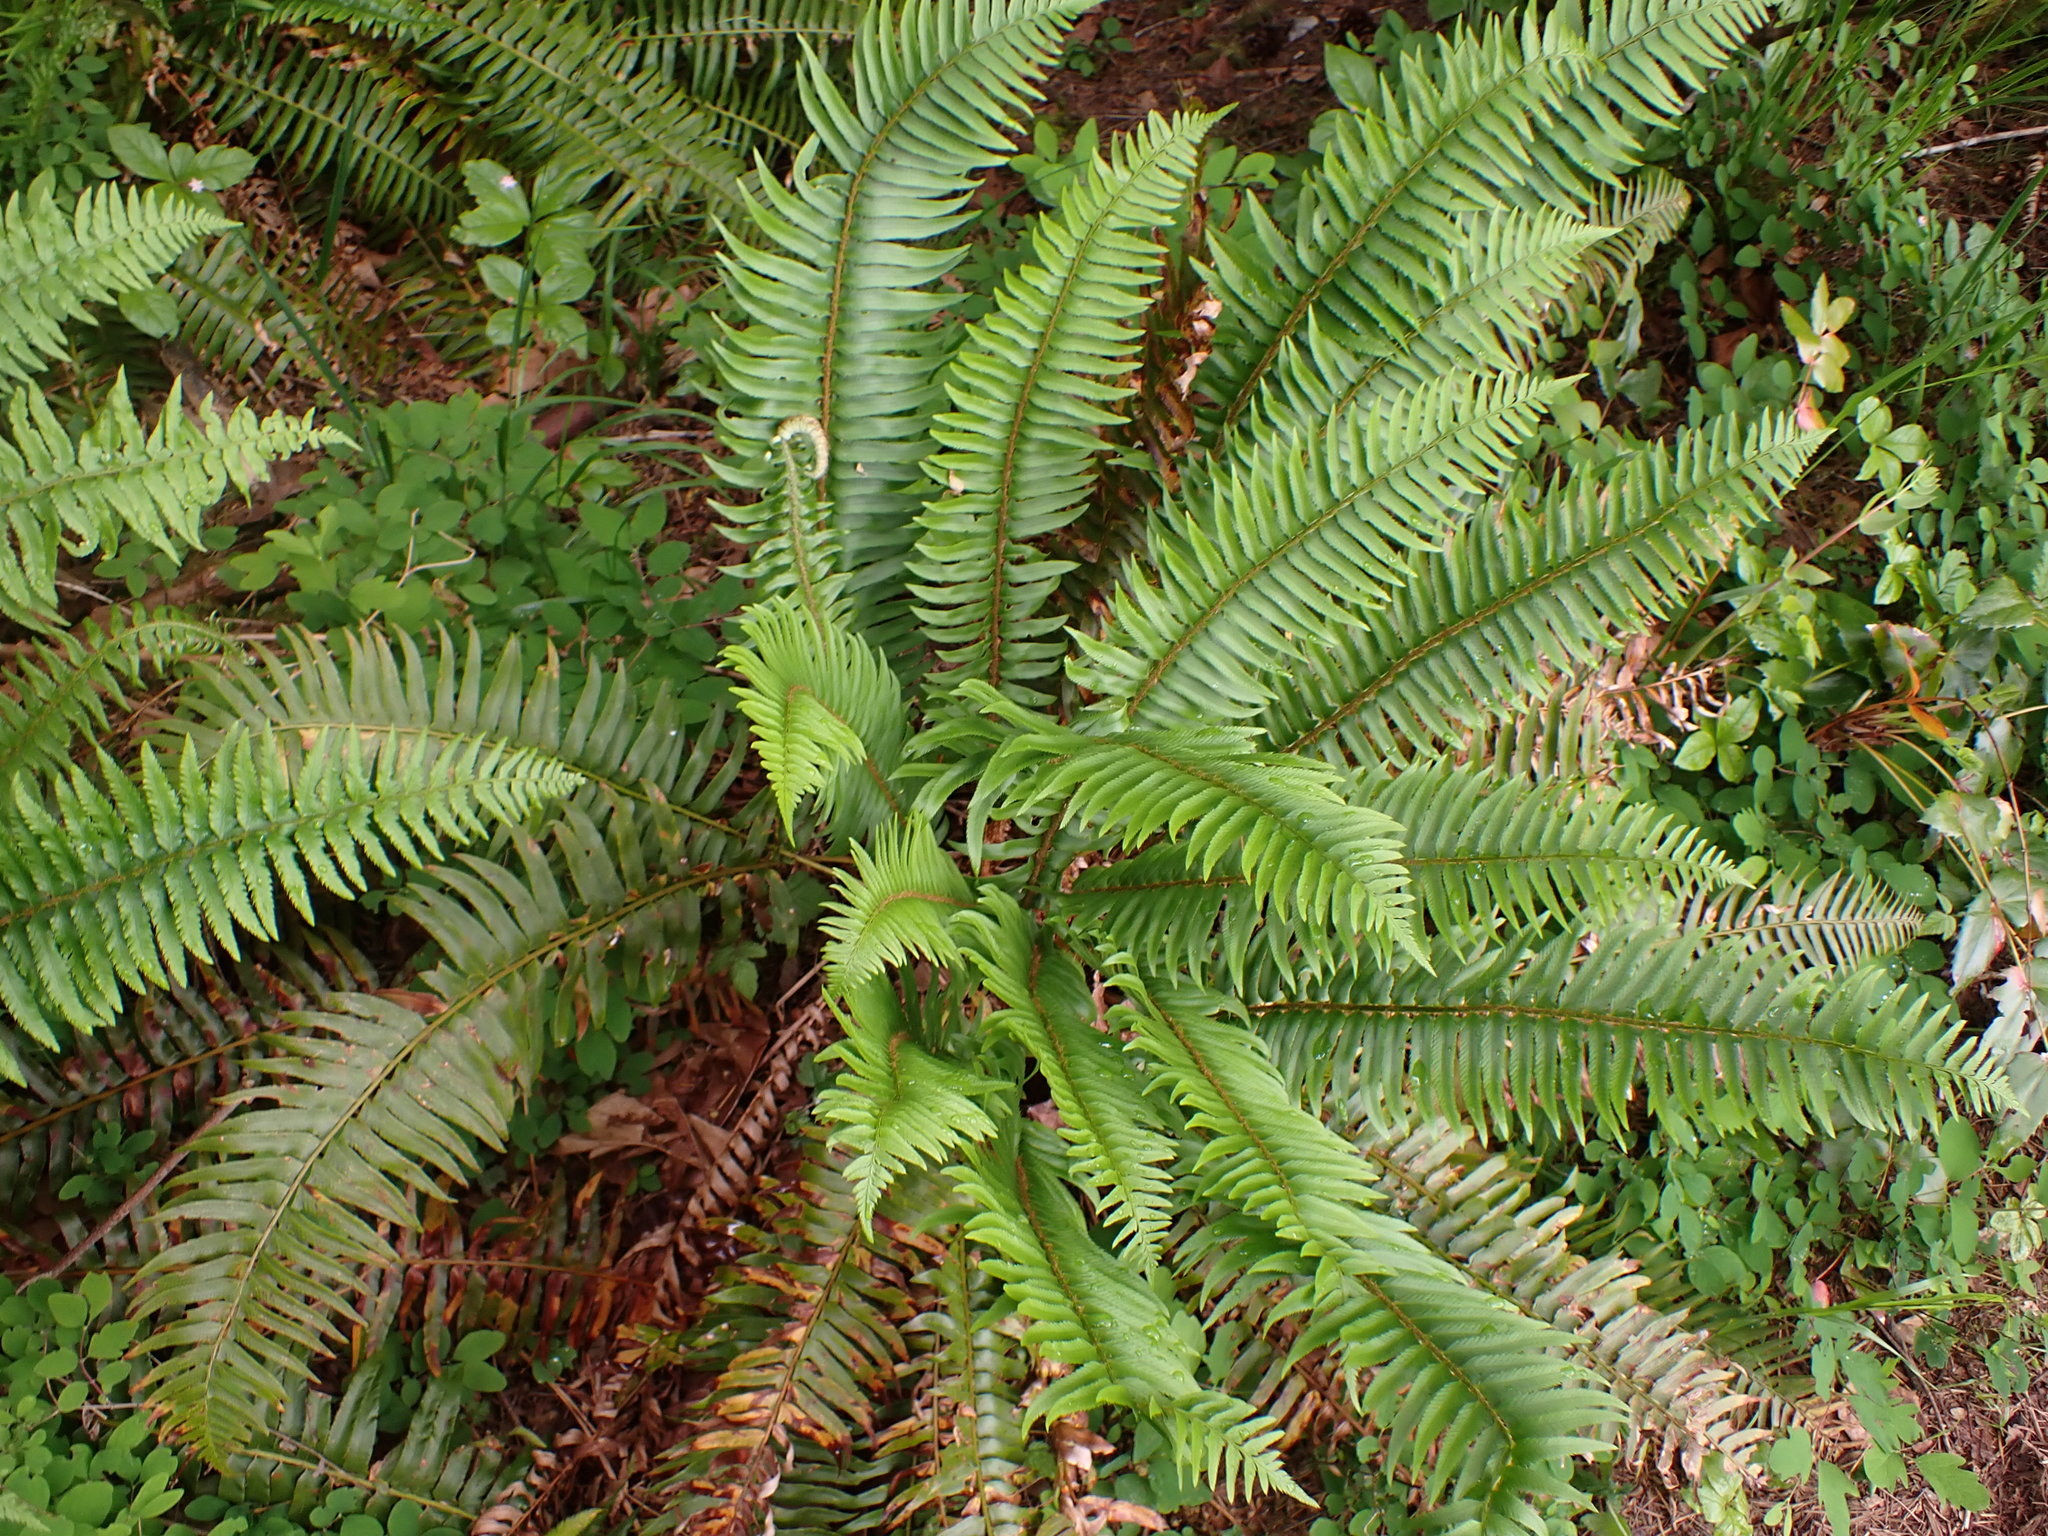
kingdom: Plantae
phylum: Tracheophyta
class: Polypodiopsida
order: Polypodiales
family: Dryopteridaceae
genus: Polystichum
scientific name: Polystichum munitum
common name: Western sword-fern
